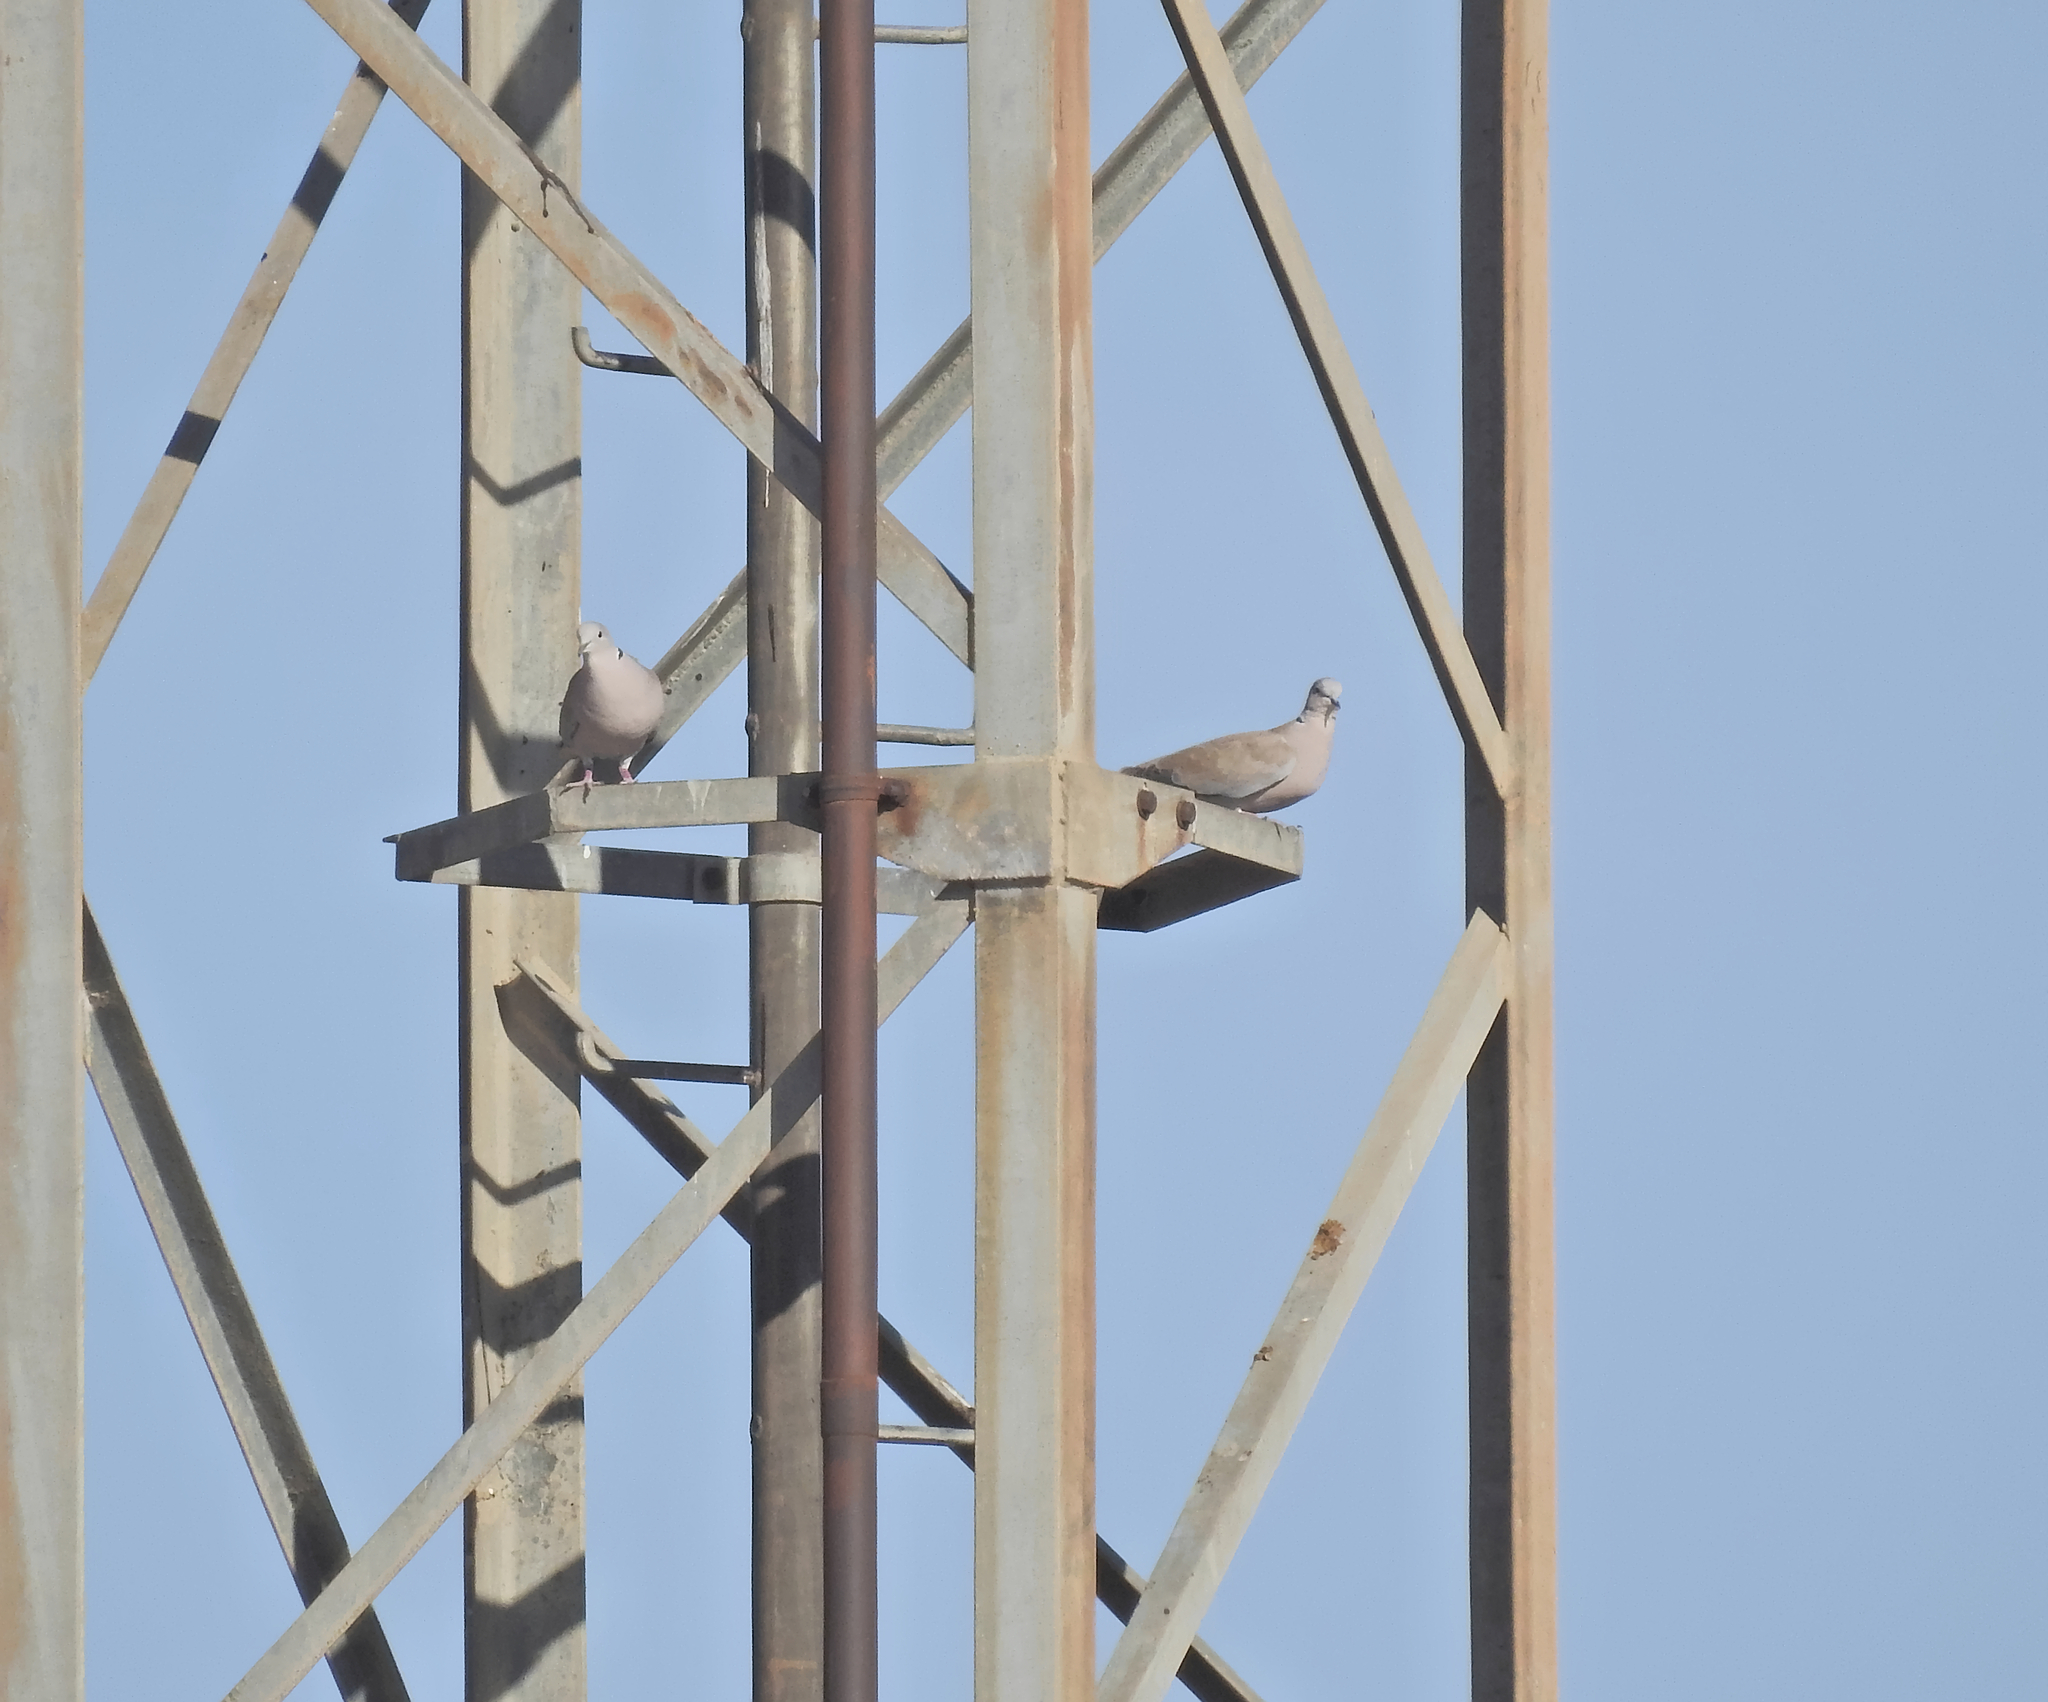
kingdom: Animalia
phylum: Chordata
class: Aves
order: Columbiformes
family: Columbidae
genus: Streptopelia
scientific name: Streptopelia decaocto
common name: Eurasian collared dove
